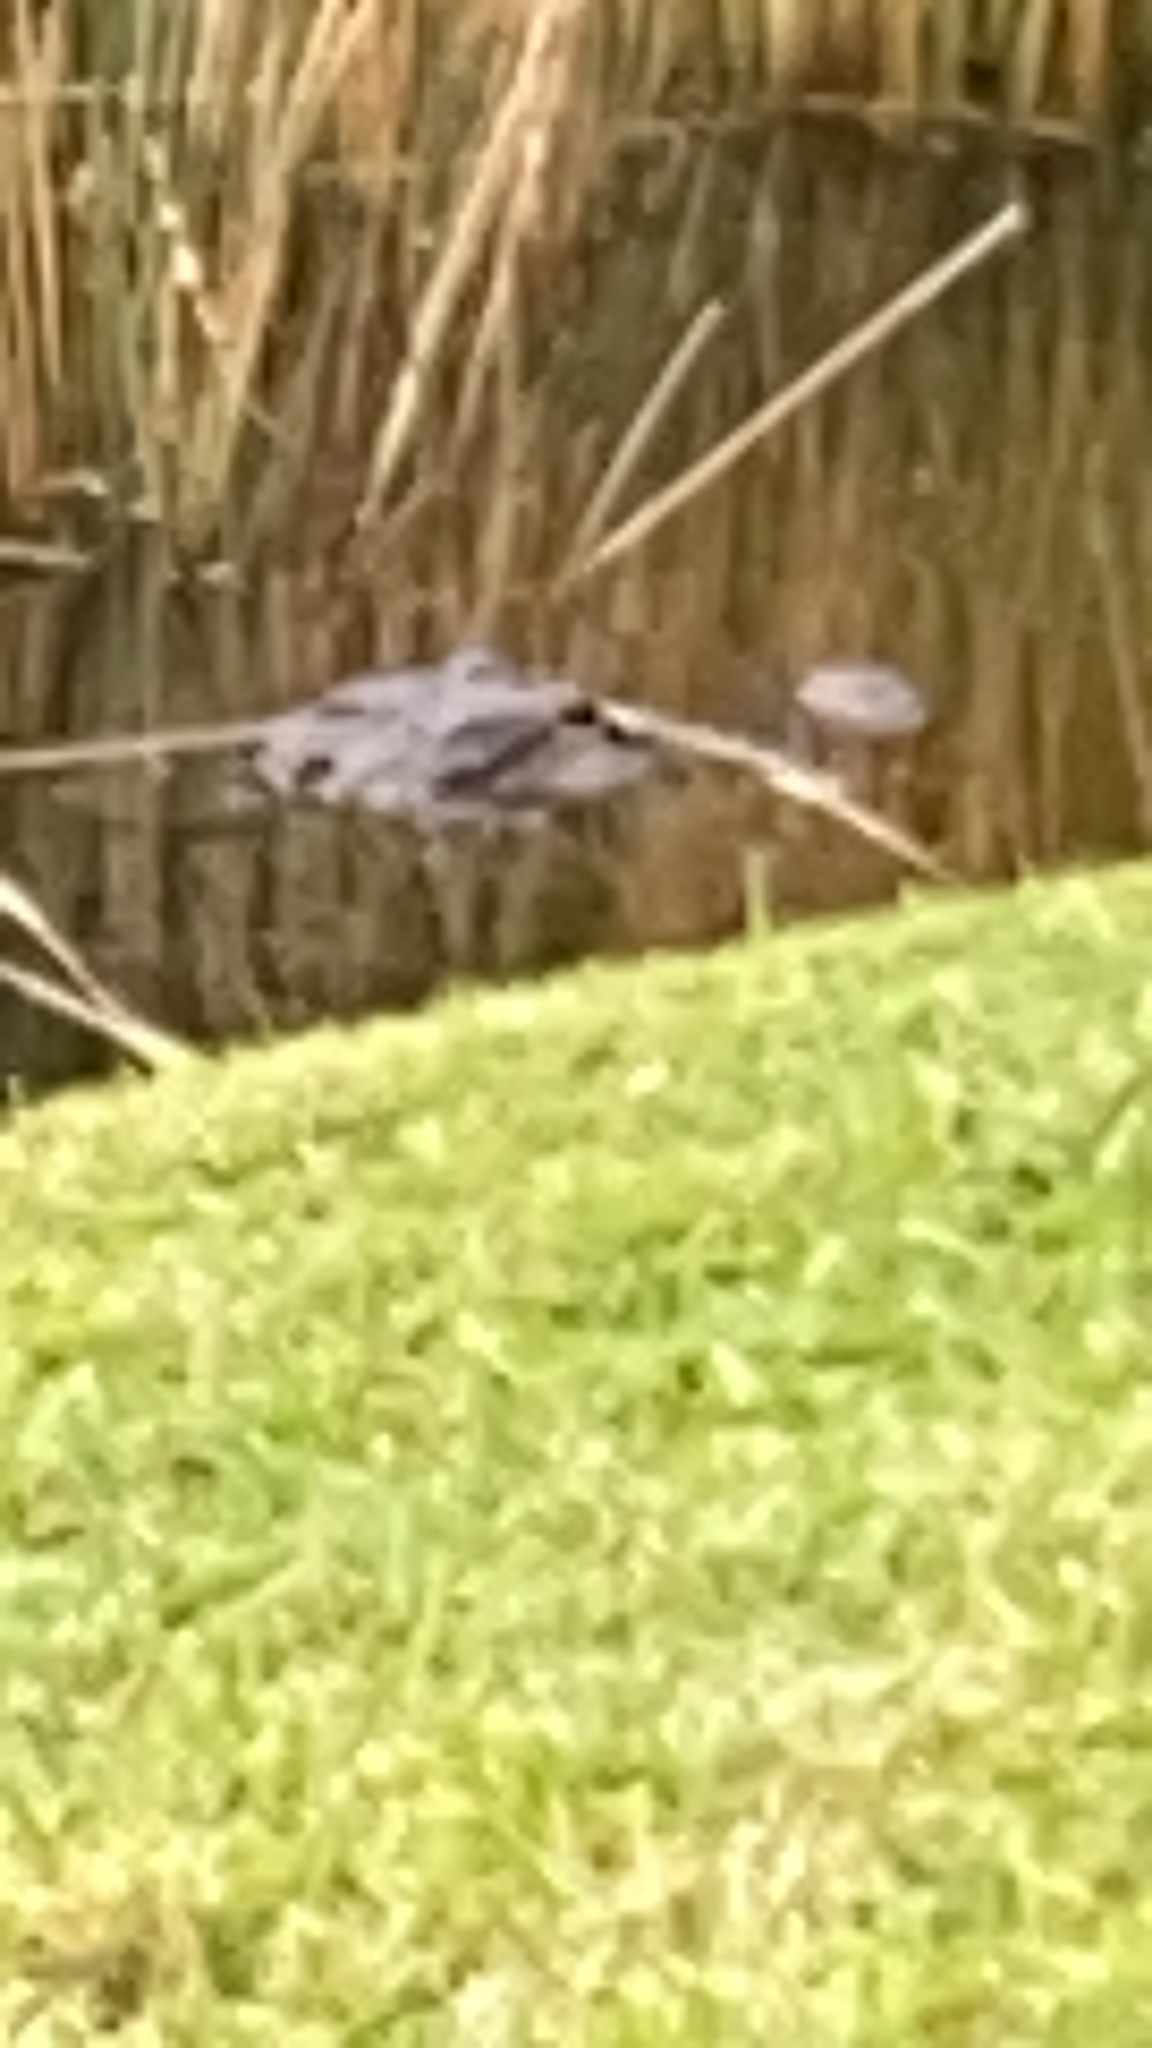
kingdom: Animalia
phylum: Chordata
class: Crocodylia
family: Alligatoridae
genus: Alligator
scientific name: Alligator mississippiensis
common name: American alligator
